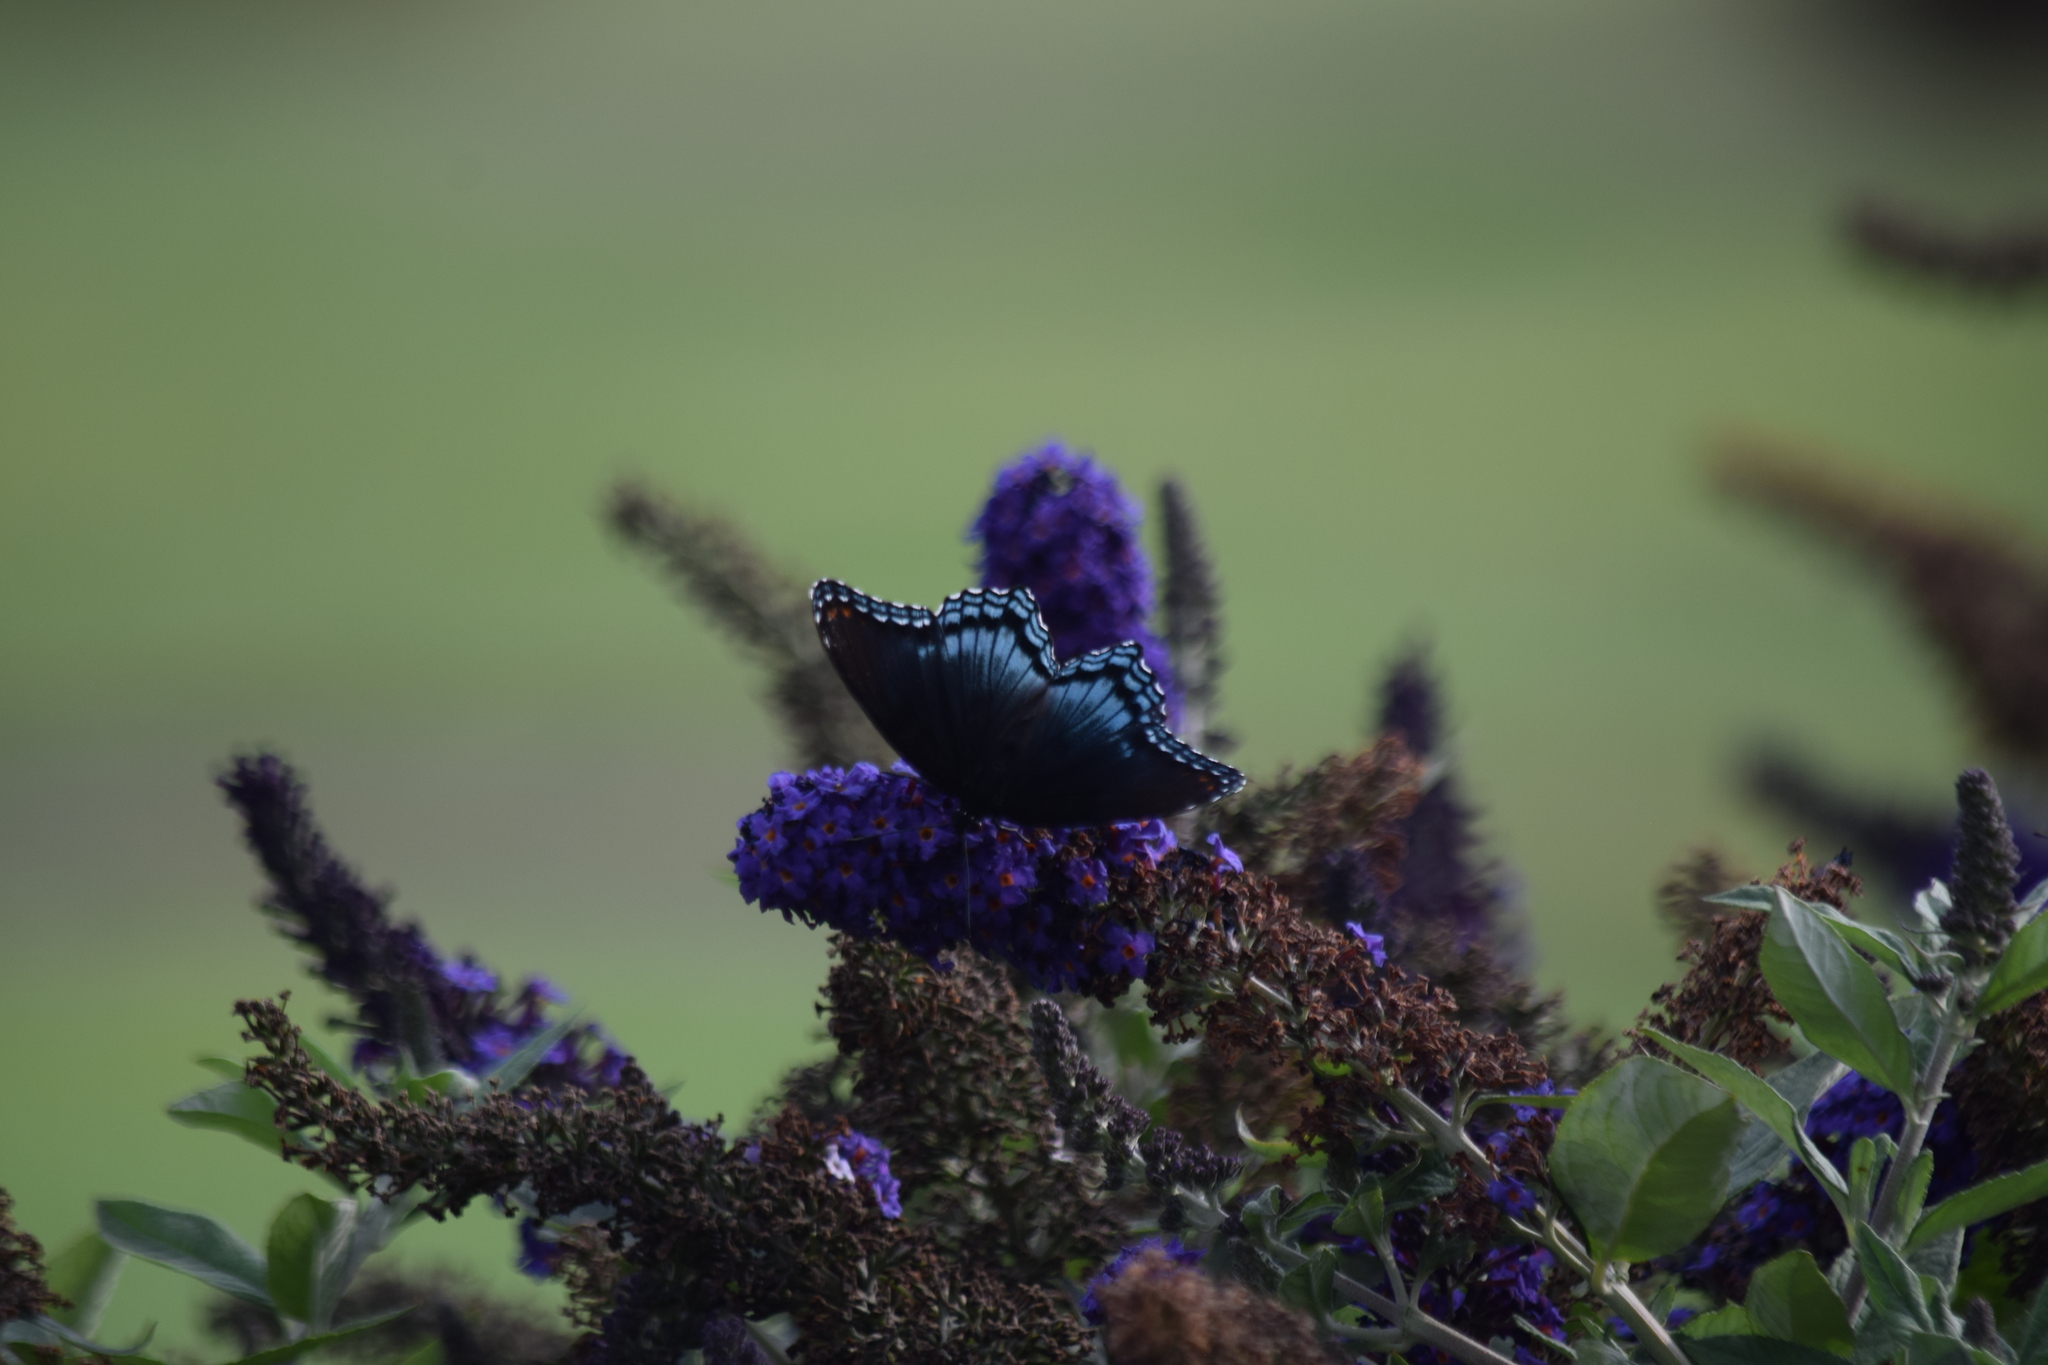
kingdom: Animalia
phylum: Arthropoda
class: Insecta
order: Lepidoptera
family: Nymphalidae
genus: Limenitis
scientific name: Limenitis astyanax
